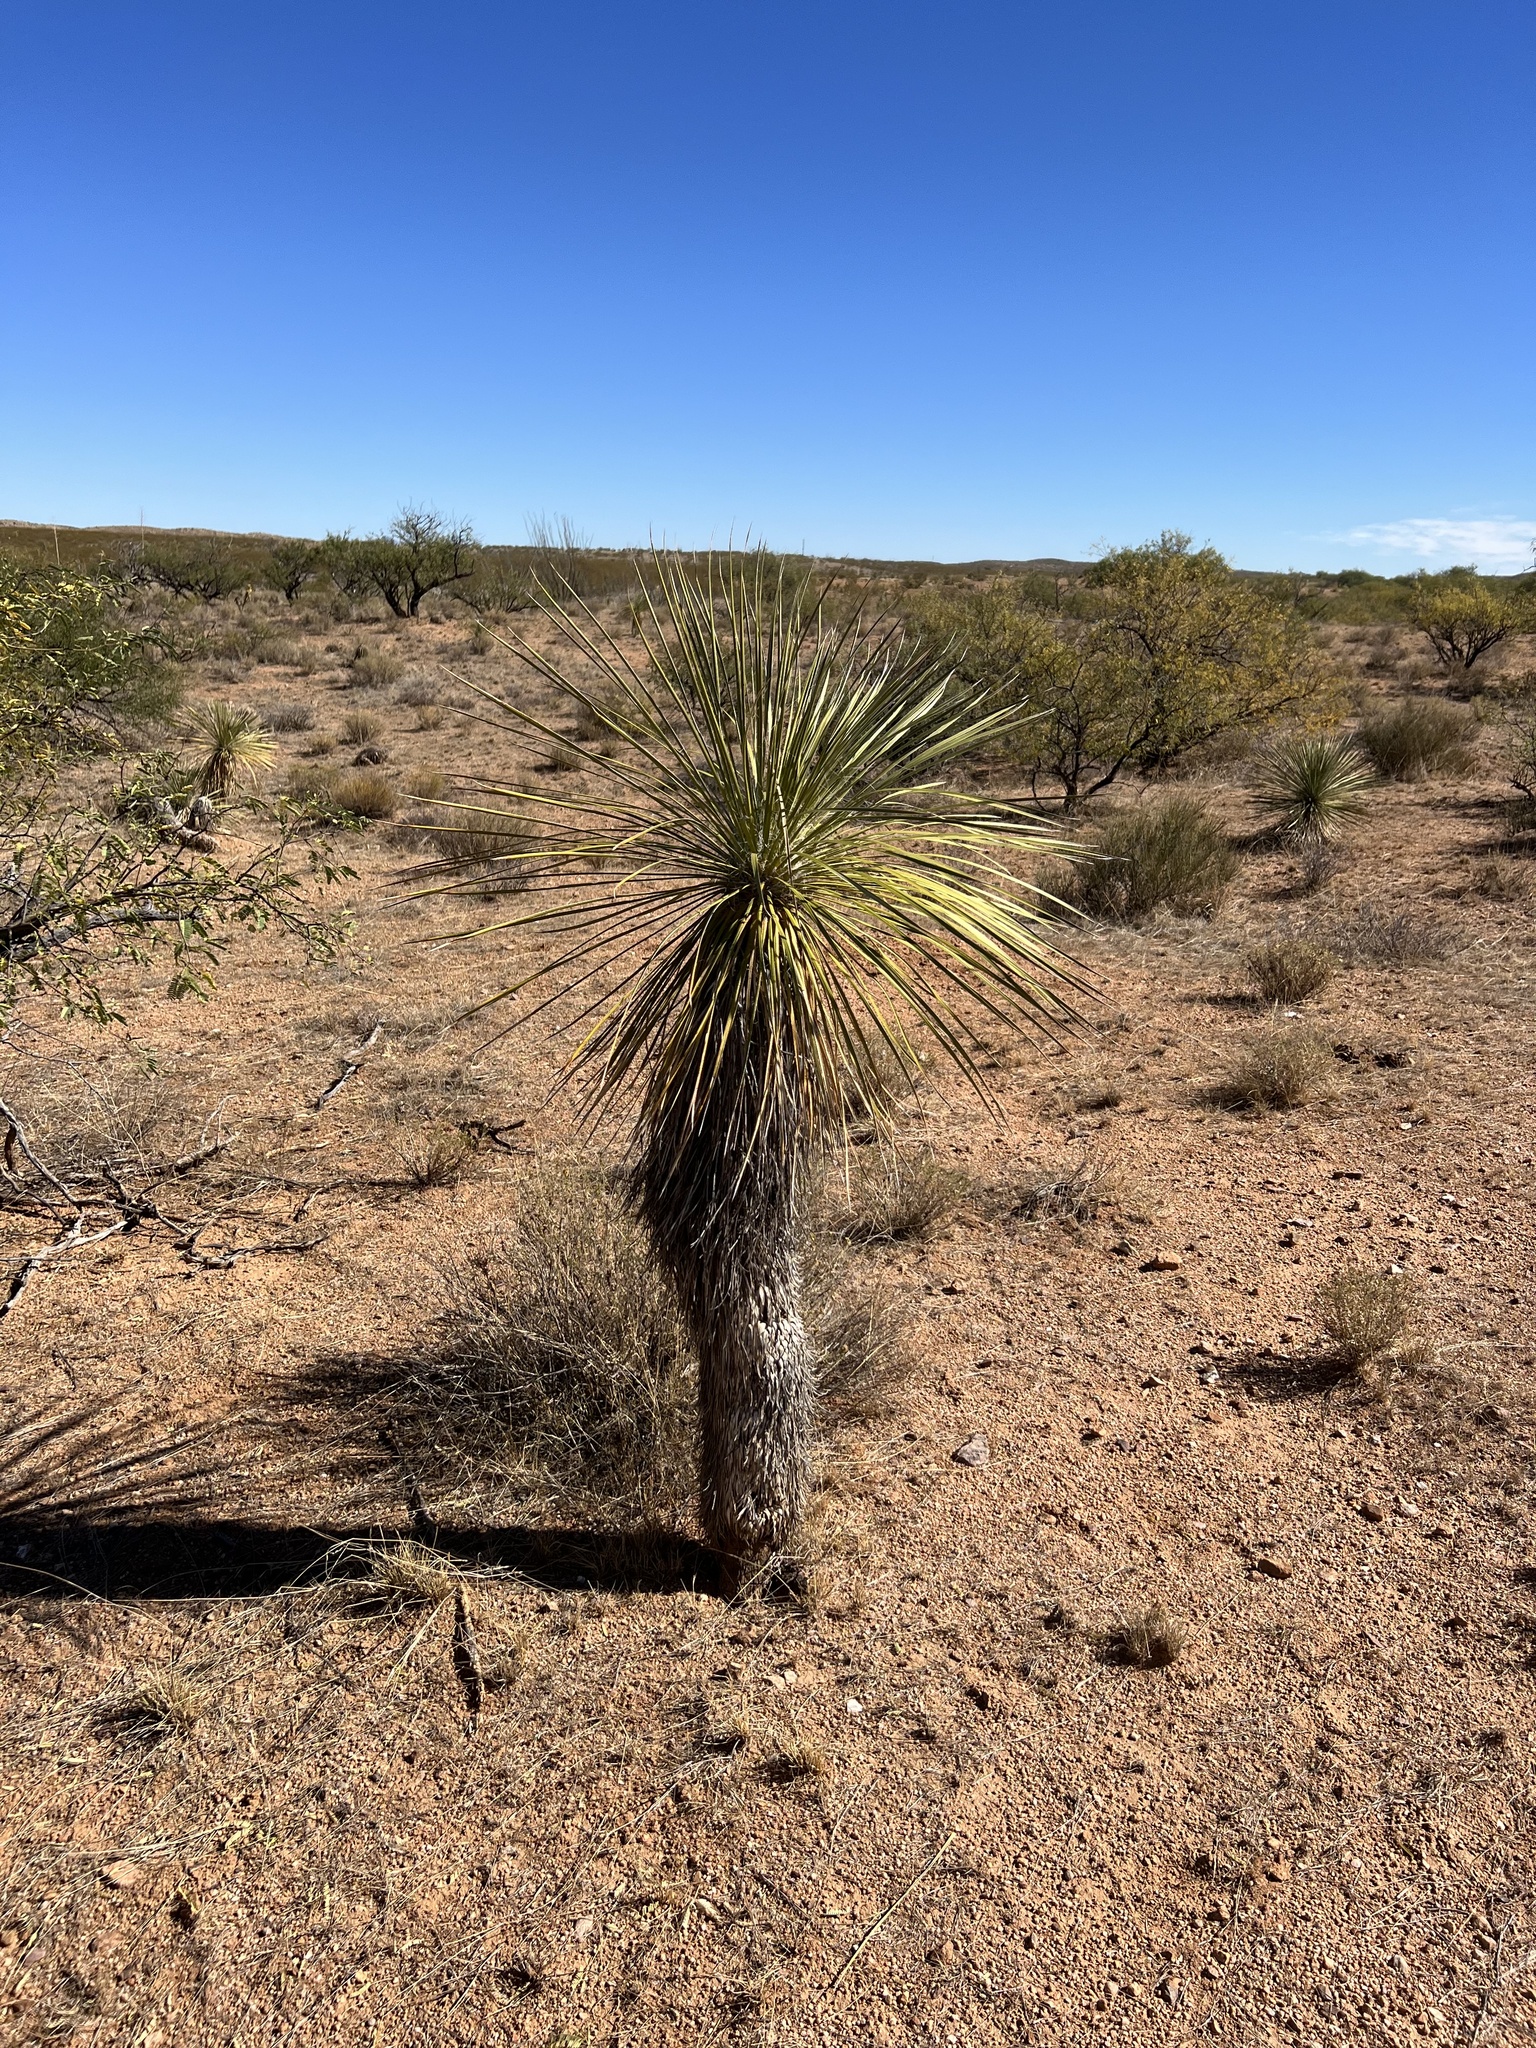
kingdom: Plantae
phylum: Tracheophyta
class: Liliopsida
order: Asparagales
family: Asparagaceae
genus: Yucca
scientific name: Yucca elata
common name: Palmella
